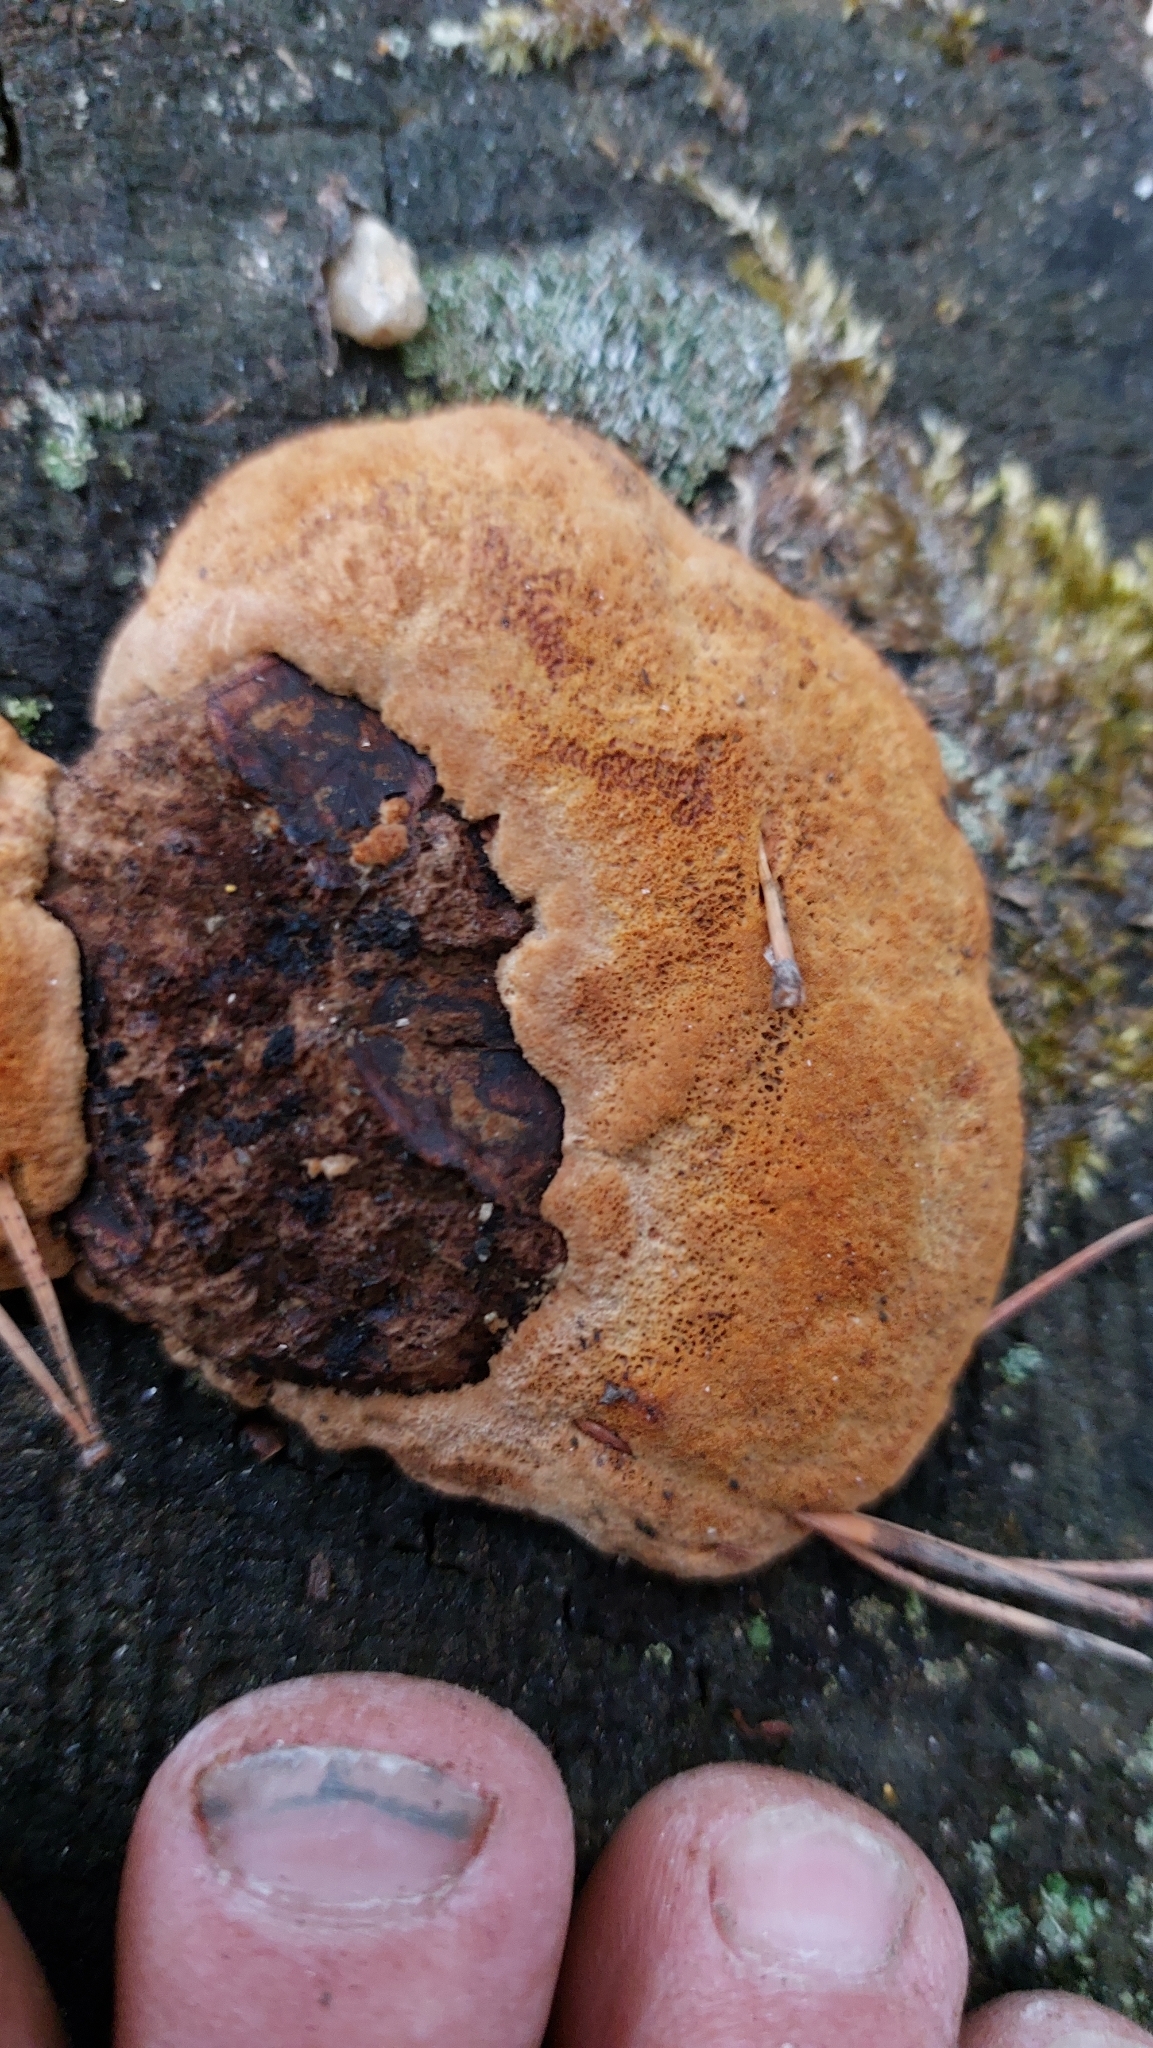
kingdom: Fungi
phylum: Basidiomycota
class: Agaricomycetes
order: Gloeophyllales
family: Gloeophyllaceae
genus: Gloeophyllum
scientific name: Gloeophyllum odoratum
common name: Anise mazegill
